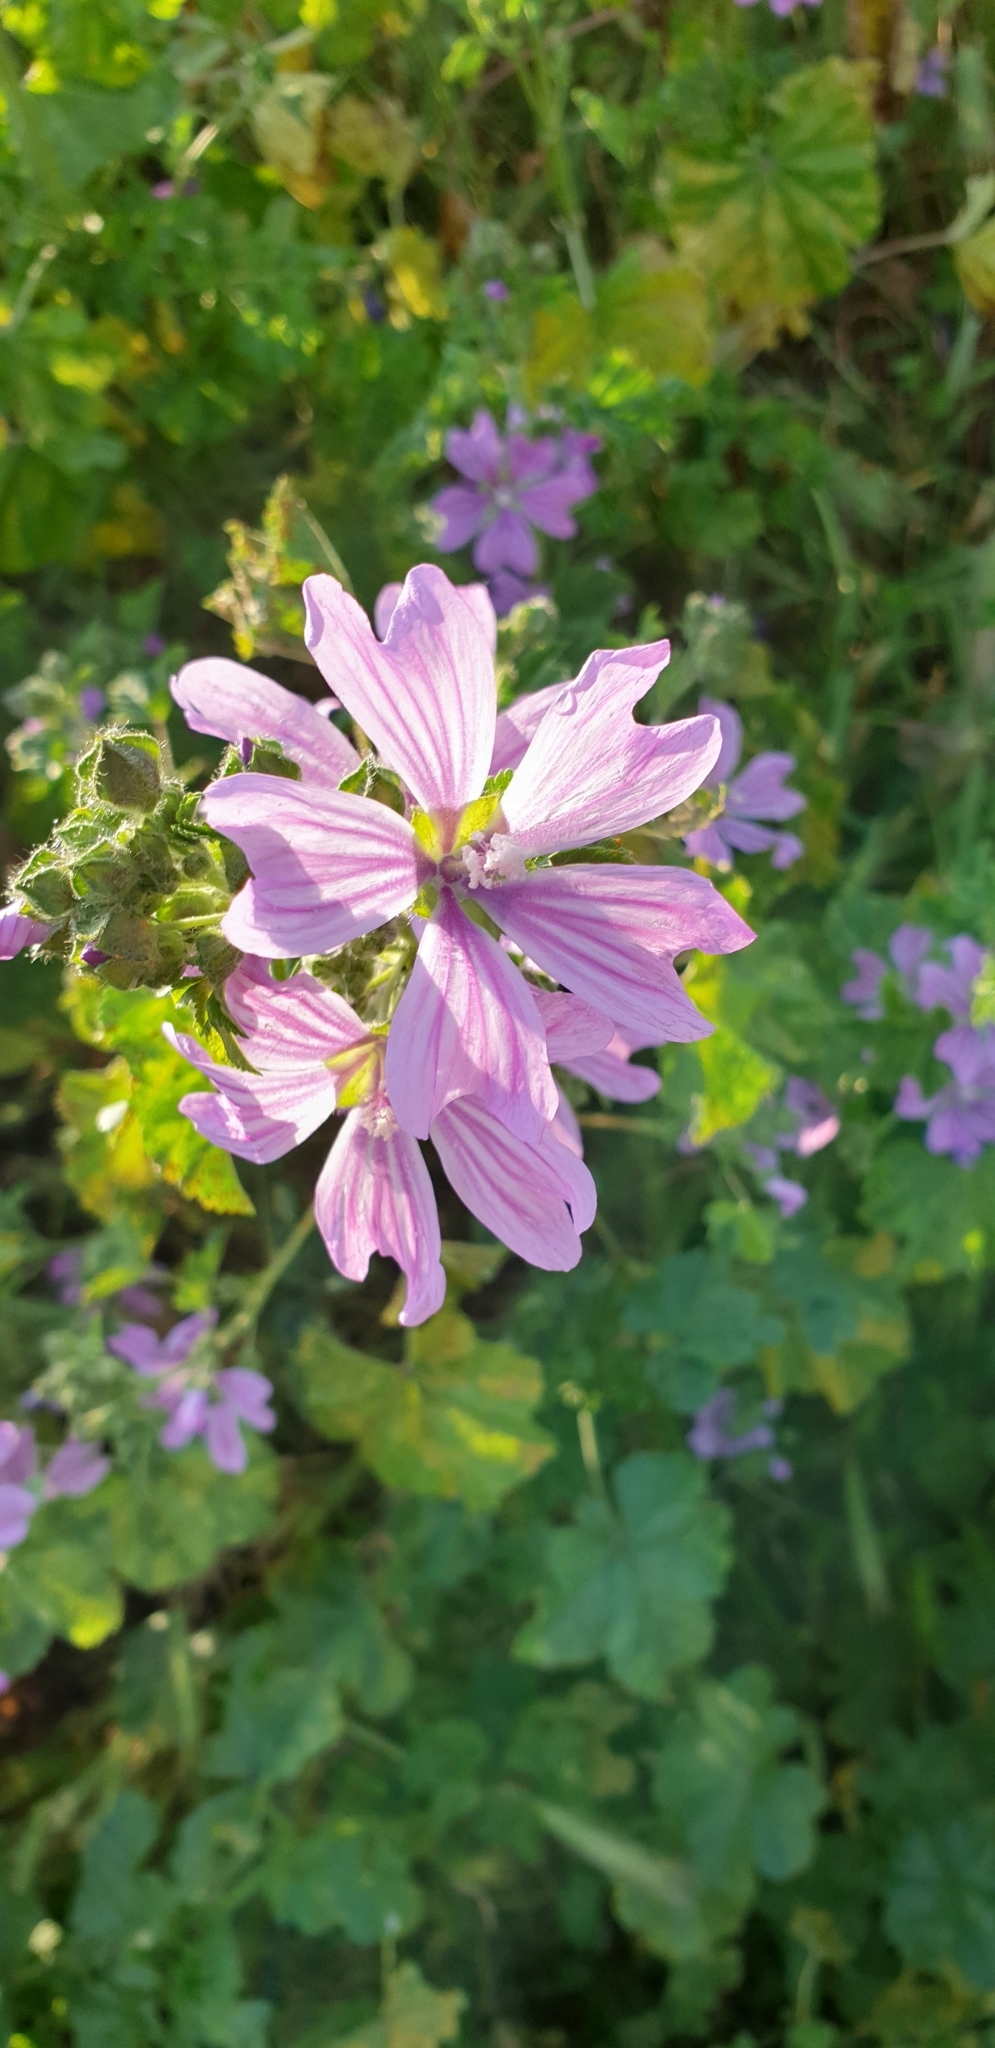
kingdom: Plantae
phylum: Tracheophyta
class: Magnoliopsida
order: Malvales
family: Malvaceae
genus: Malva
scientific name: Malva sylvestris
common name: Common mallow
